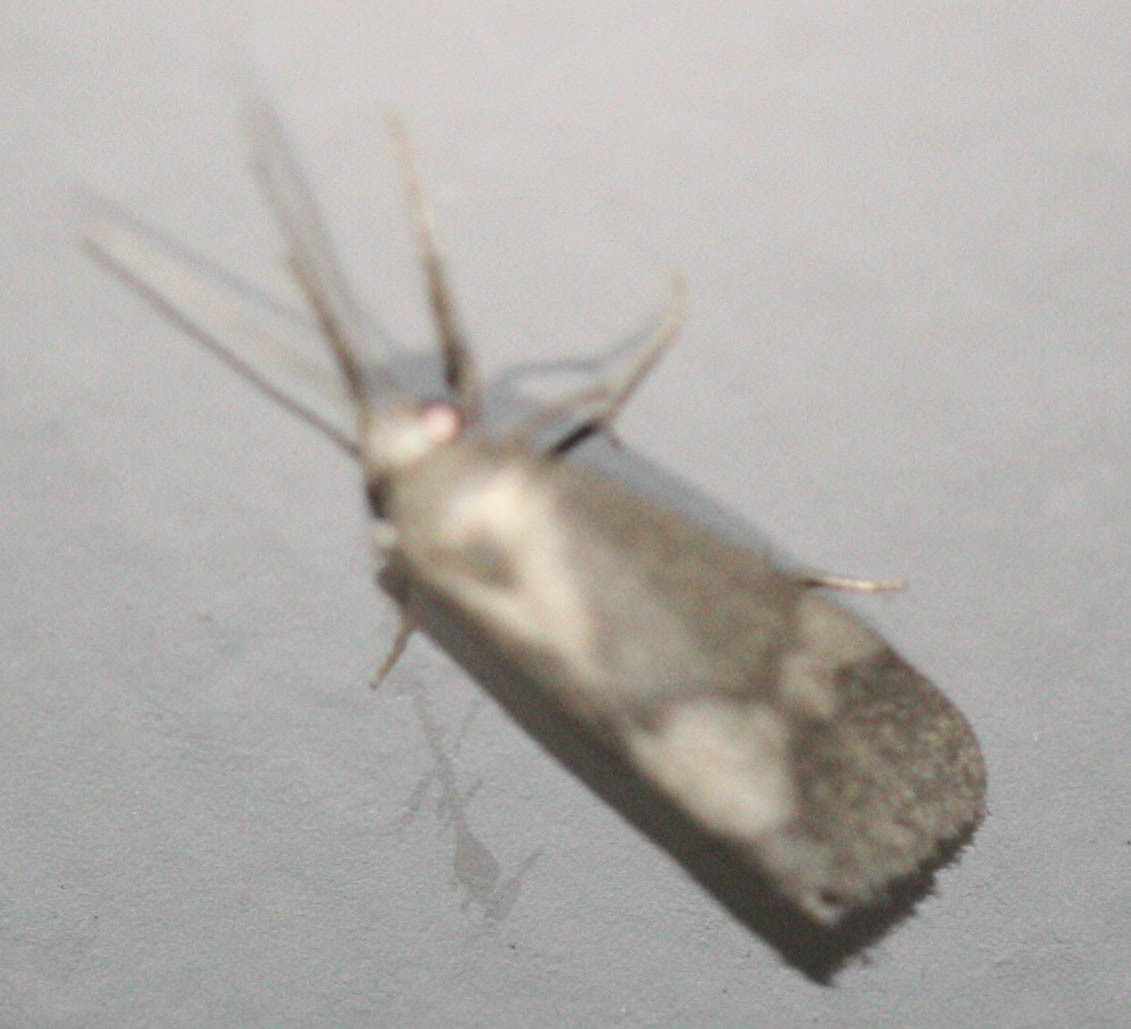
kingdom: Animalia
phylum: Arthropoda
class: Insecta
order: Lepidoptera
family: Erebidae
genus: Cisthene
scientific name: Cisthene faustinula
